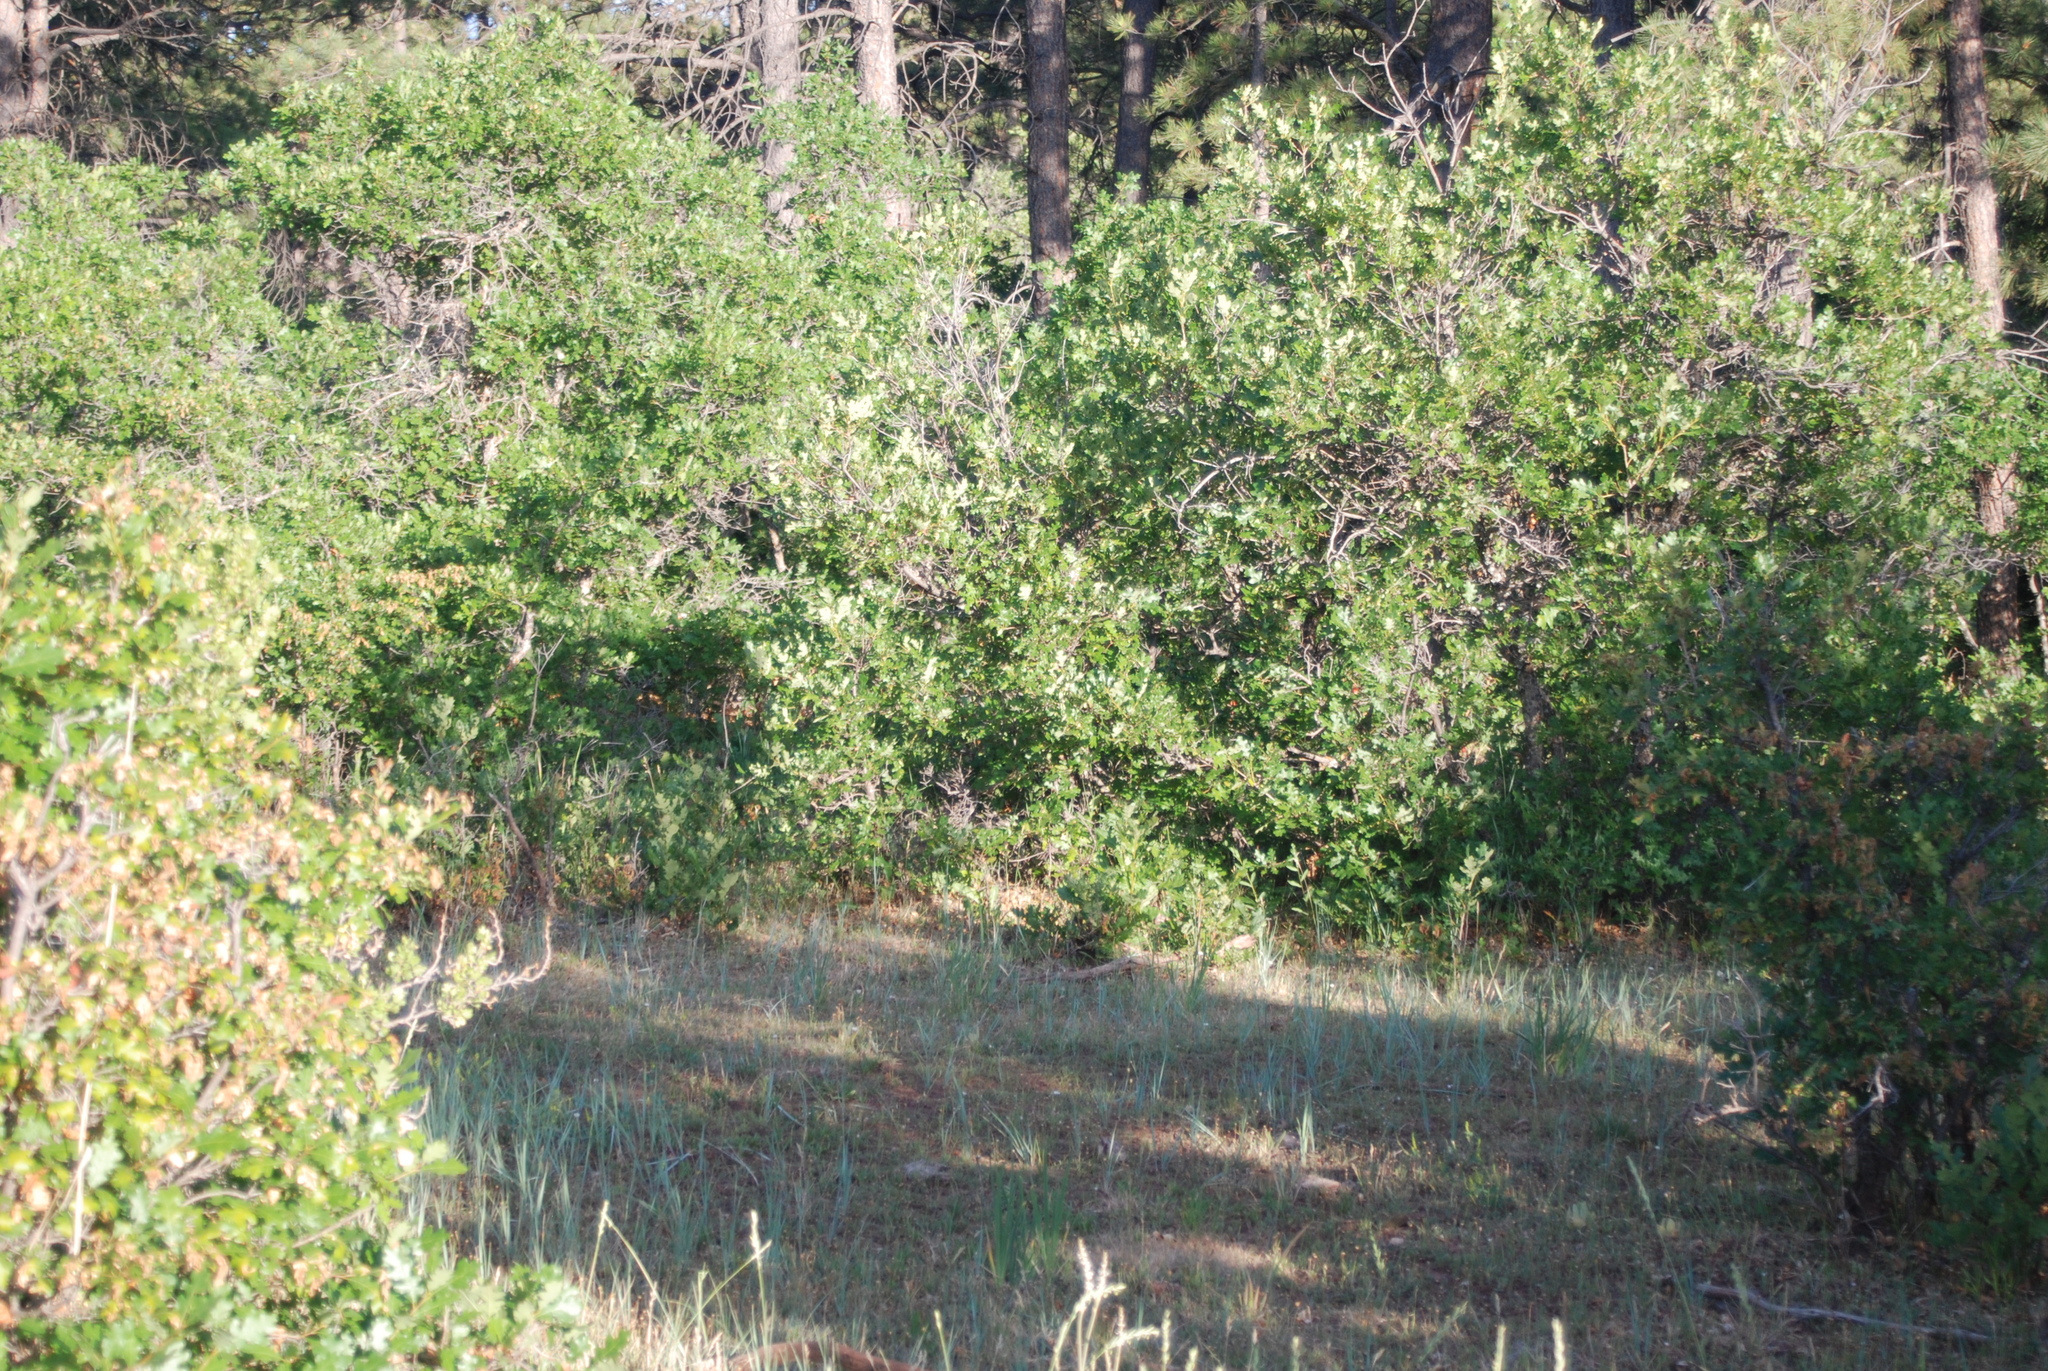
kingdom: Plantae
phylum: Tracheophyta
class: Magnoliopsida
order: Fagales
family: Fagaceae
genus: Quercus
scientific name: Quercus gambelii
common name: Gambel oak
